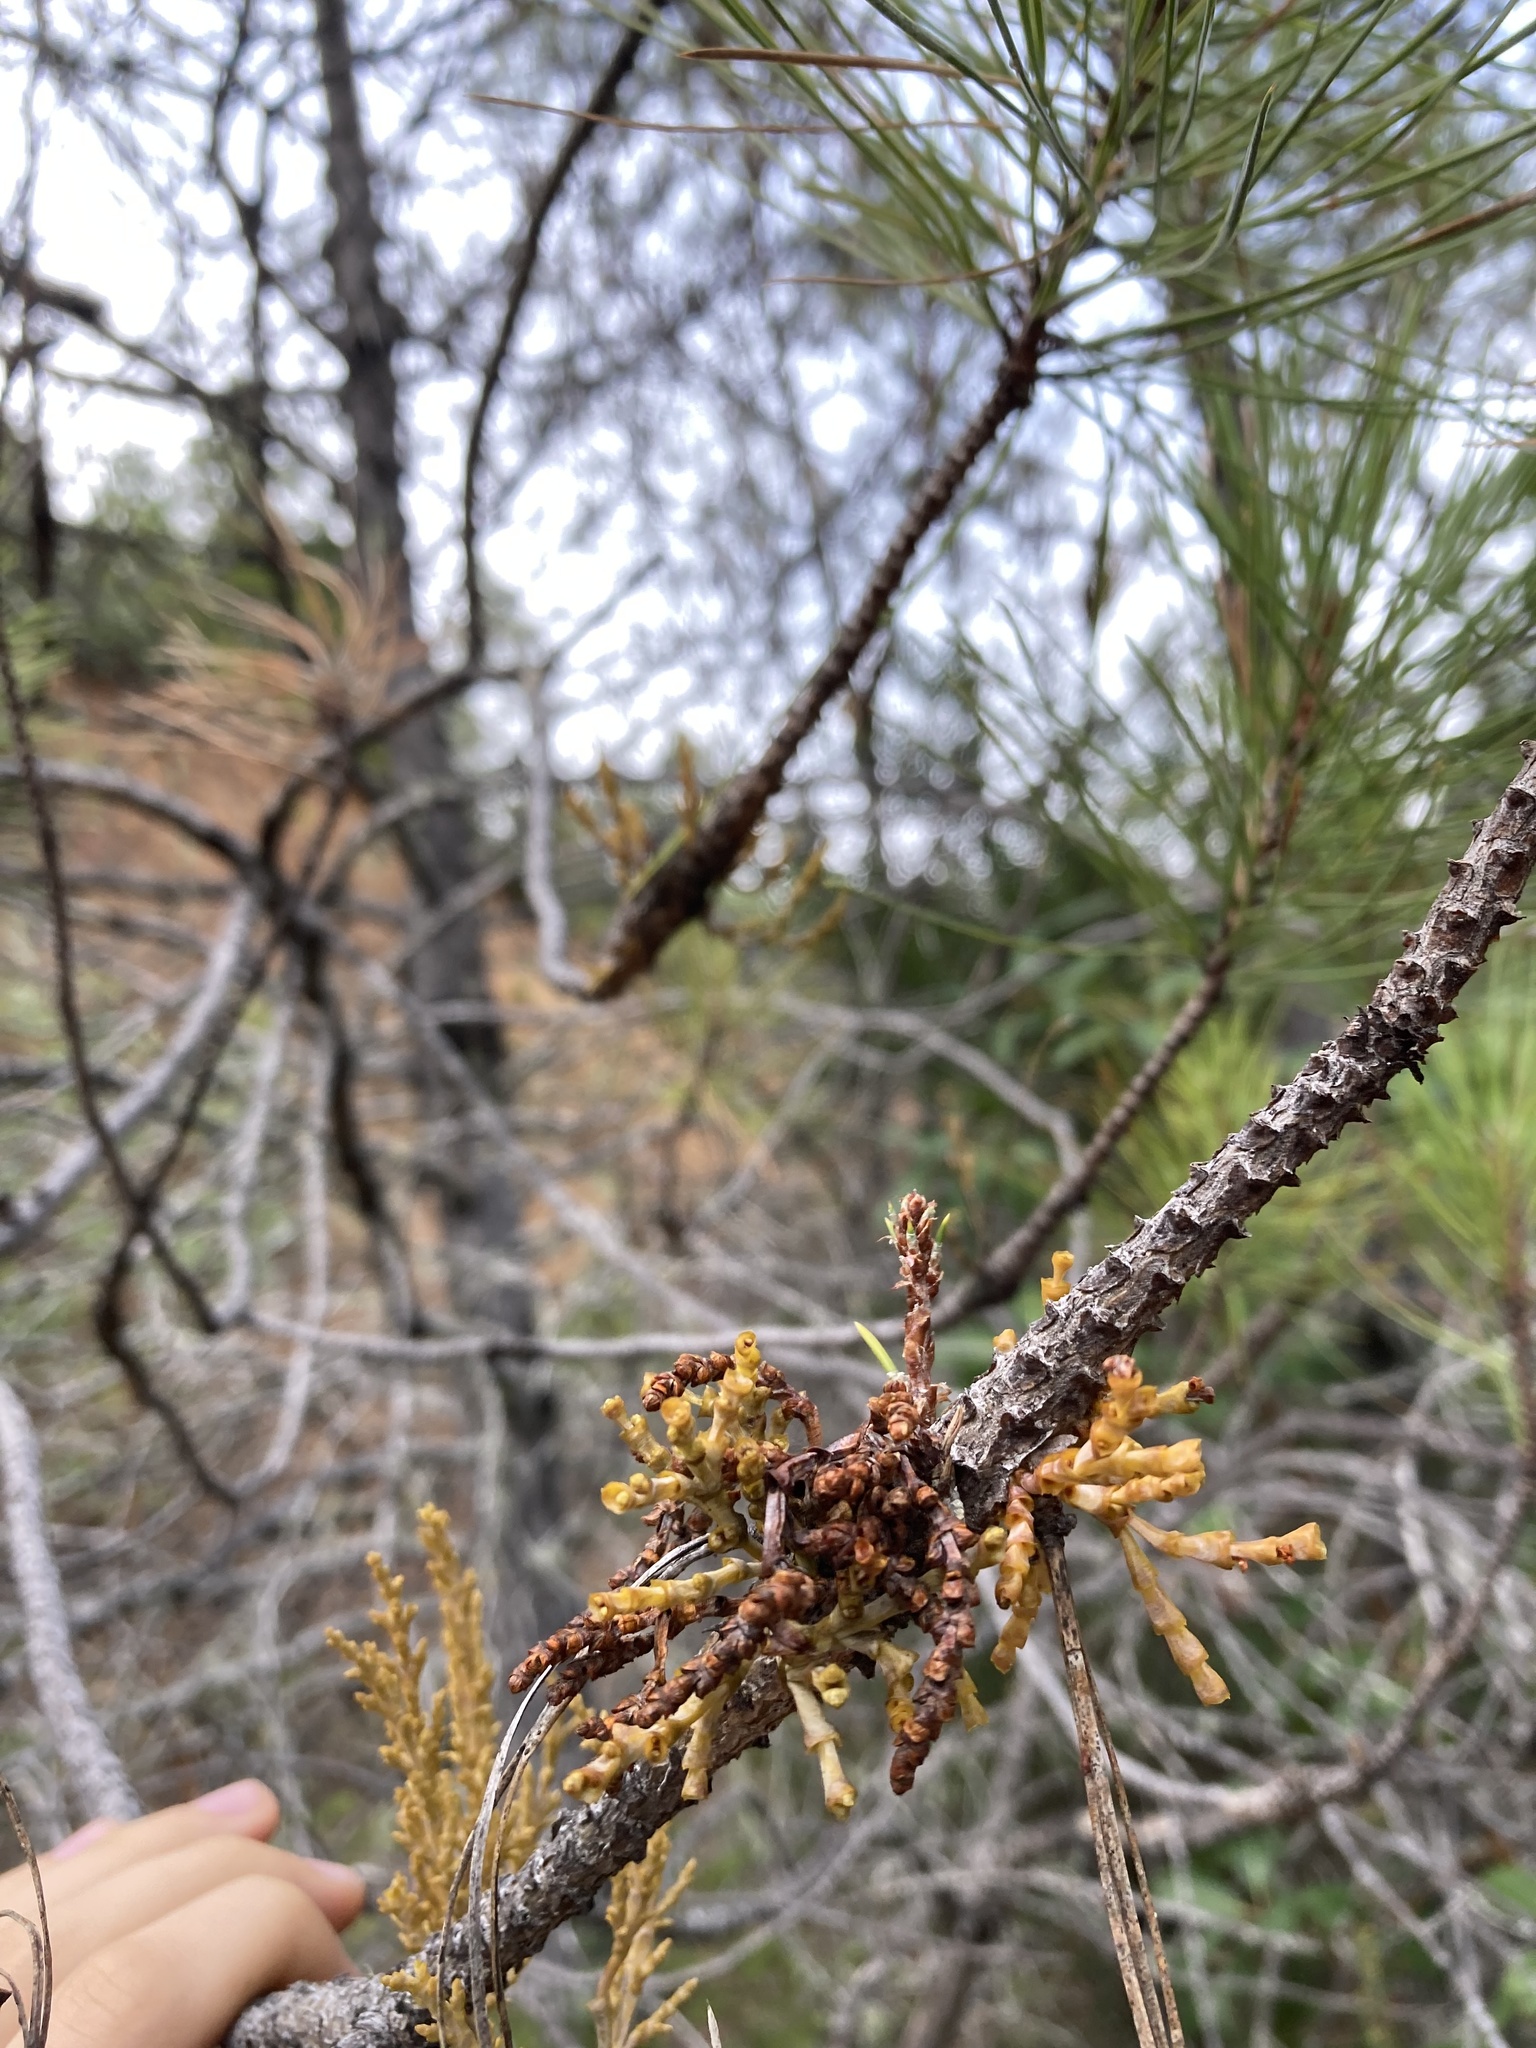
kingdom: Plantae
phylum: Tracheophyta
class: Magnoliopsida
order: Santalales
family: Viscaceae
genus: Arceuthobium
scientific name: Arceuthobium campylopodum
